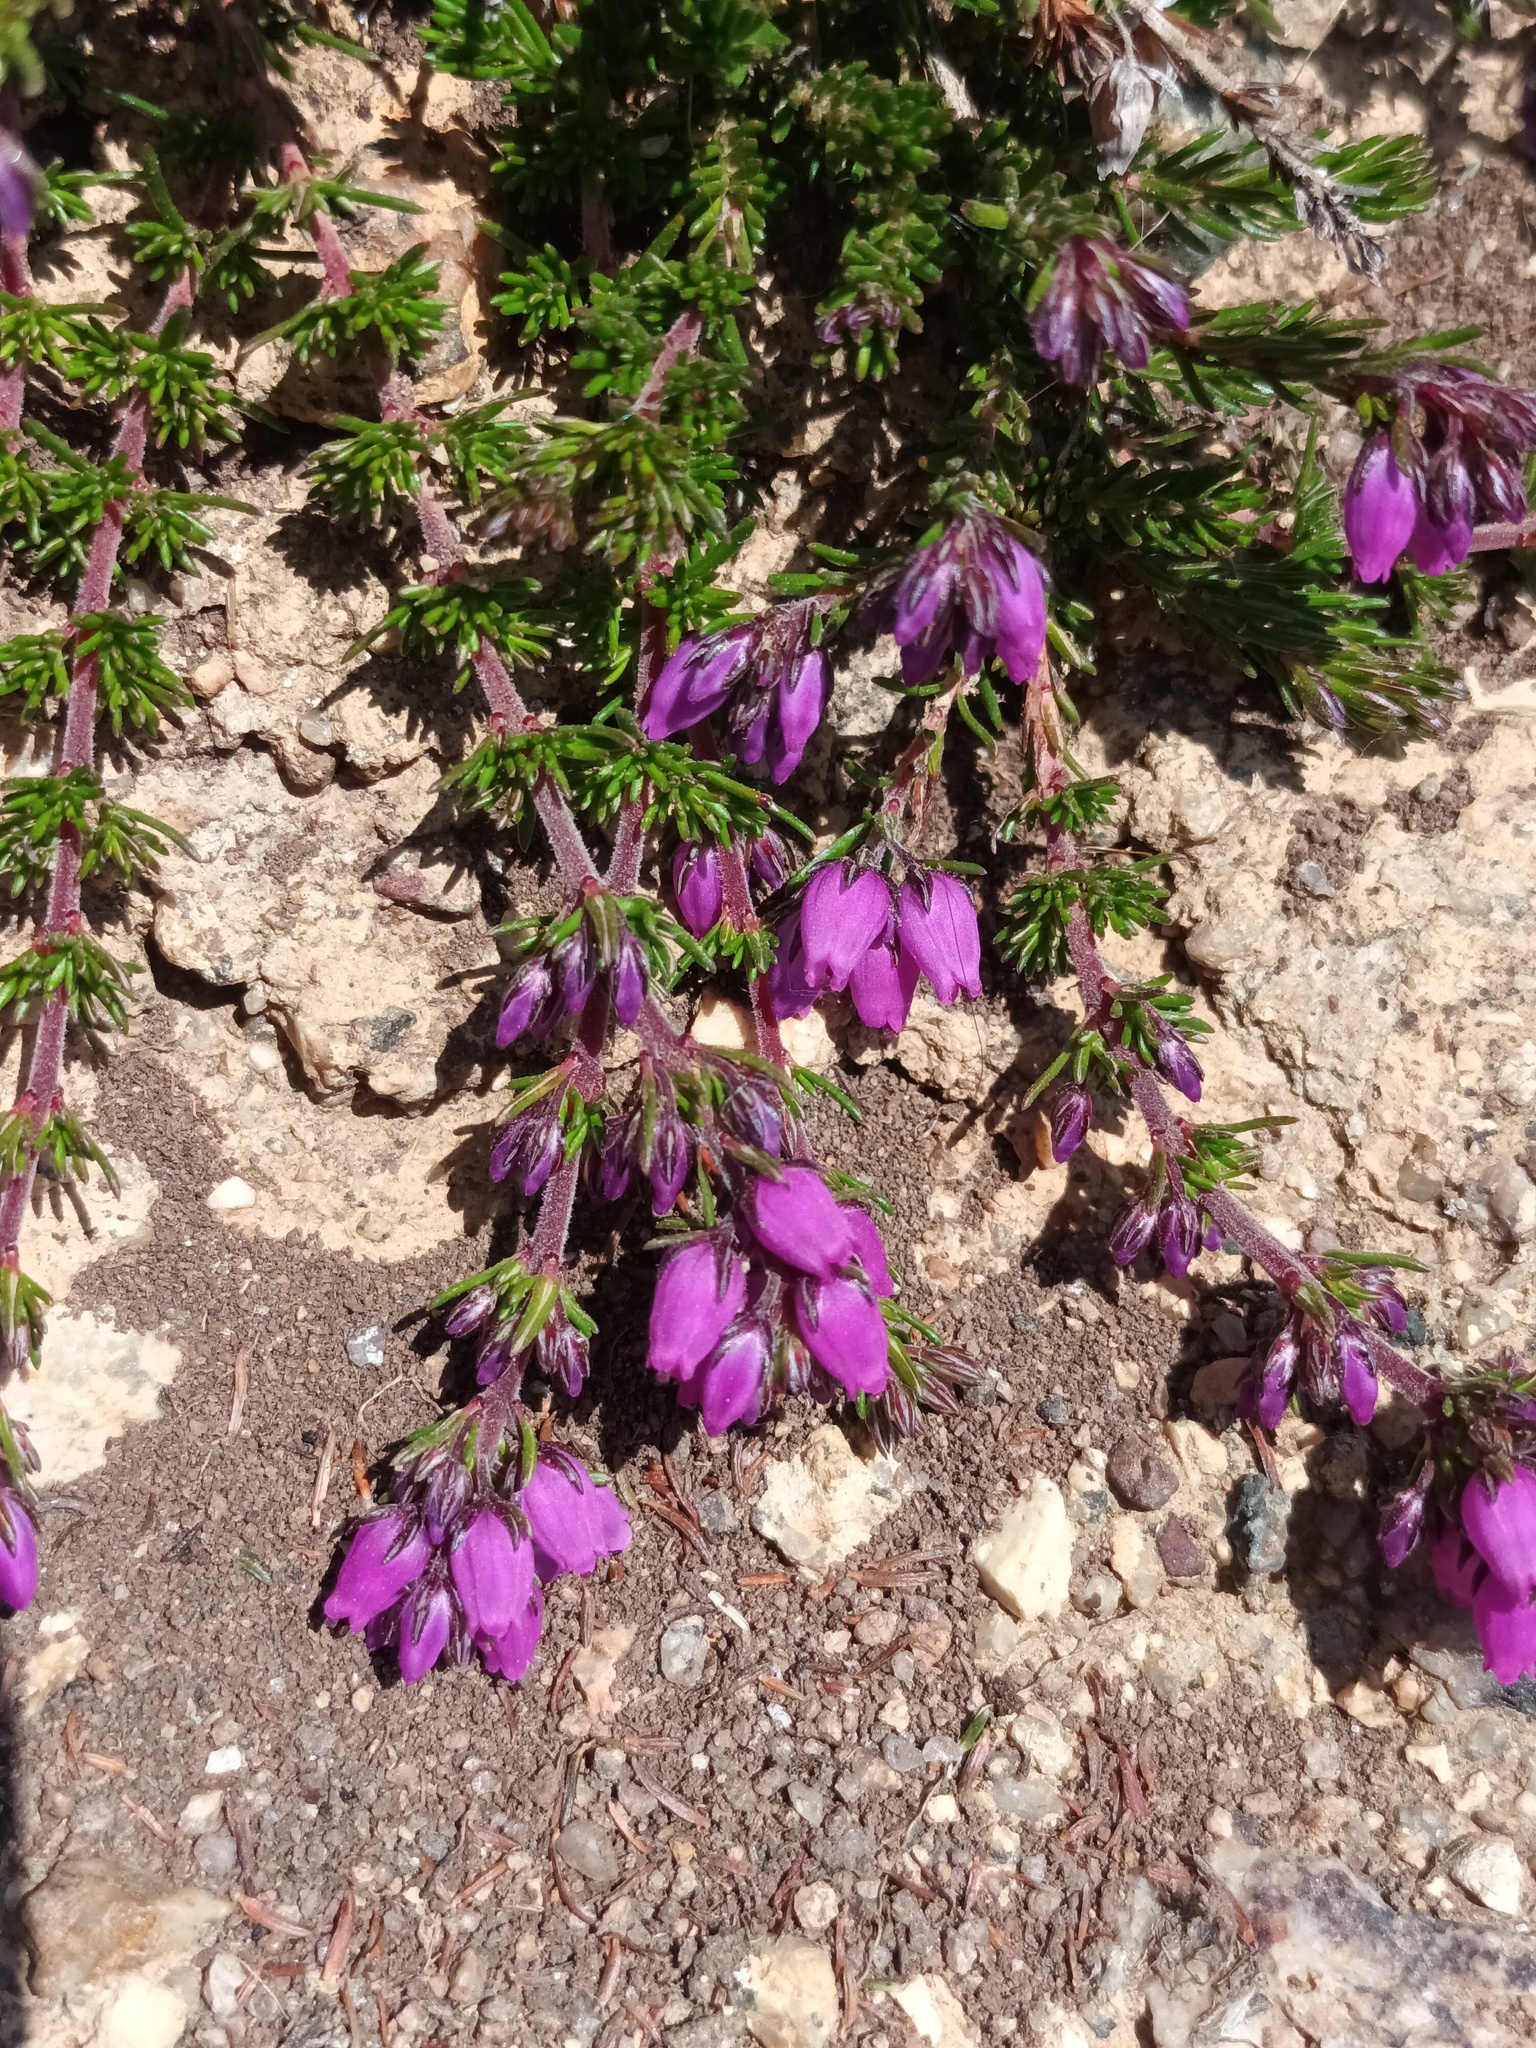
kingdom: Plantae
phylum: Tracheophyta
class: Magnoliopsida
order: Ericales
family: Ericaceae
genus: Erica
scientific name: Erica cinerea
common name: Bell heather
